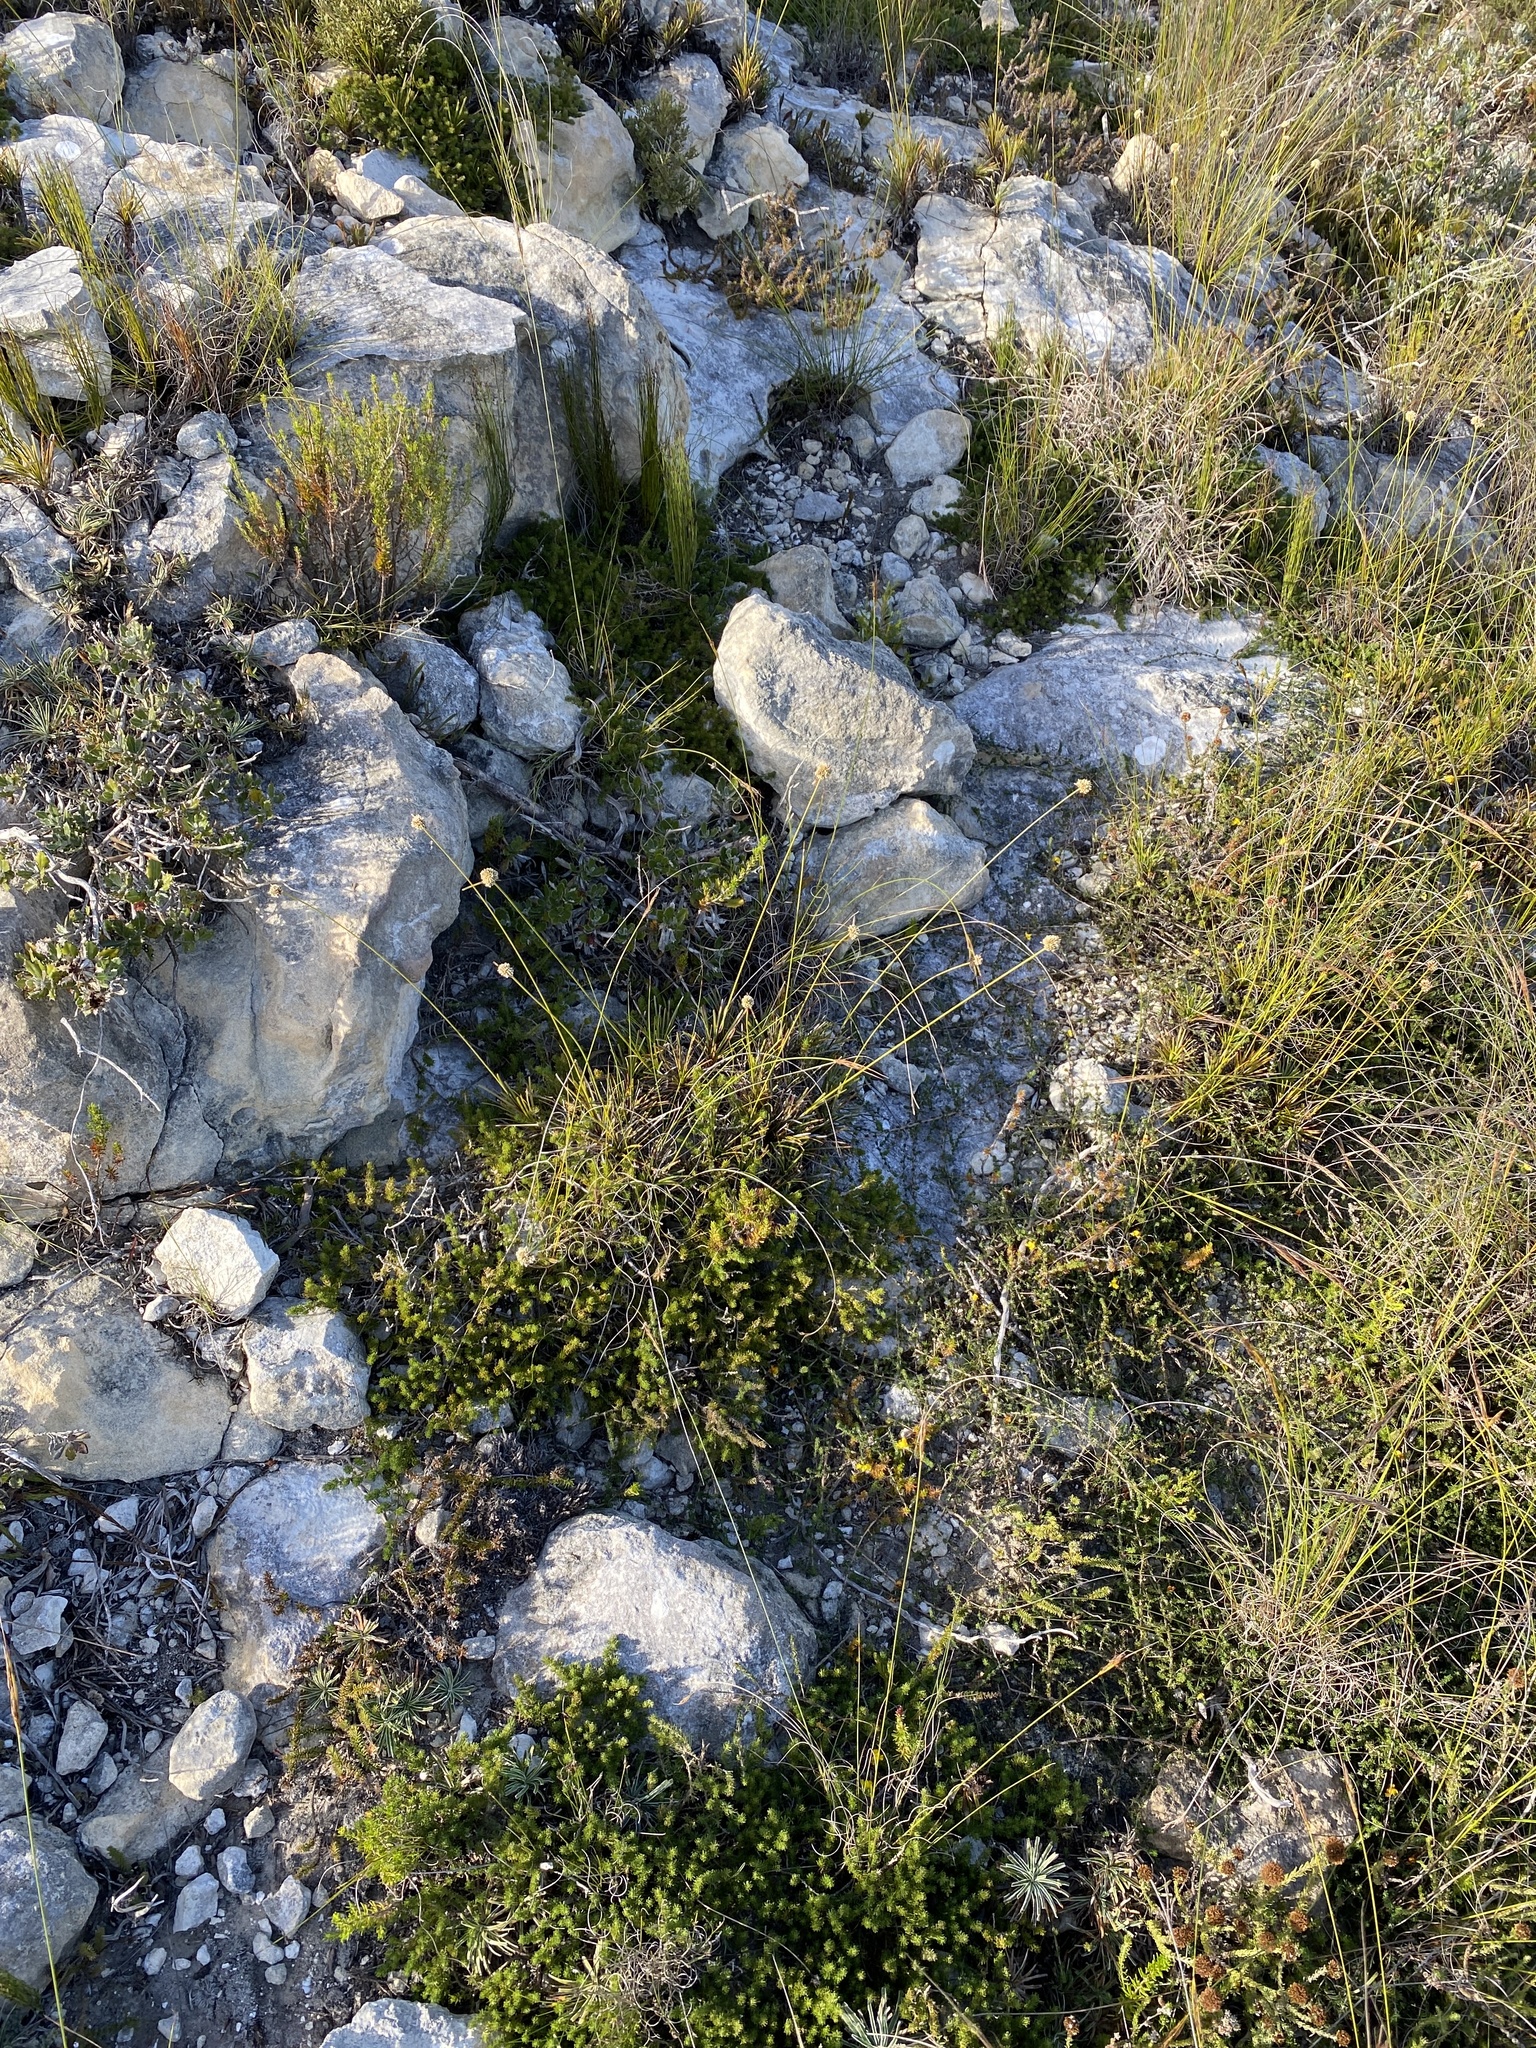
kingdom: Plantae
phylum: Tracheophyta
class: Liliopsida
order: Poales
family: Cyperaceae
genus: Ficinia
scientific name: Ficinia praemorsa
